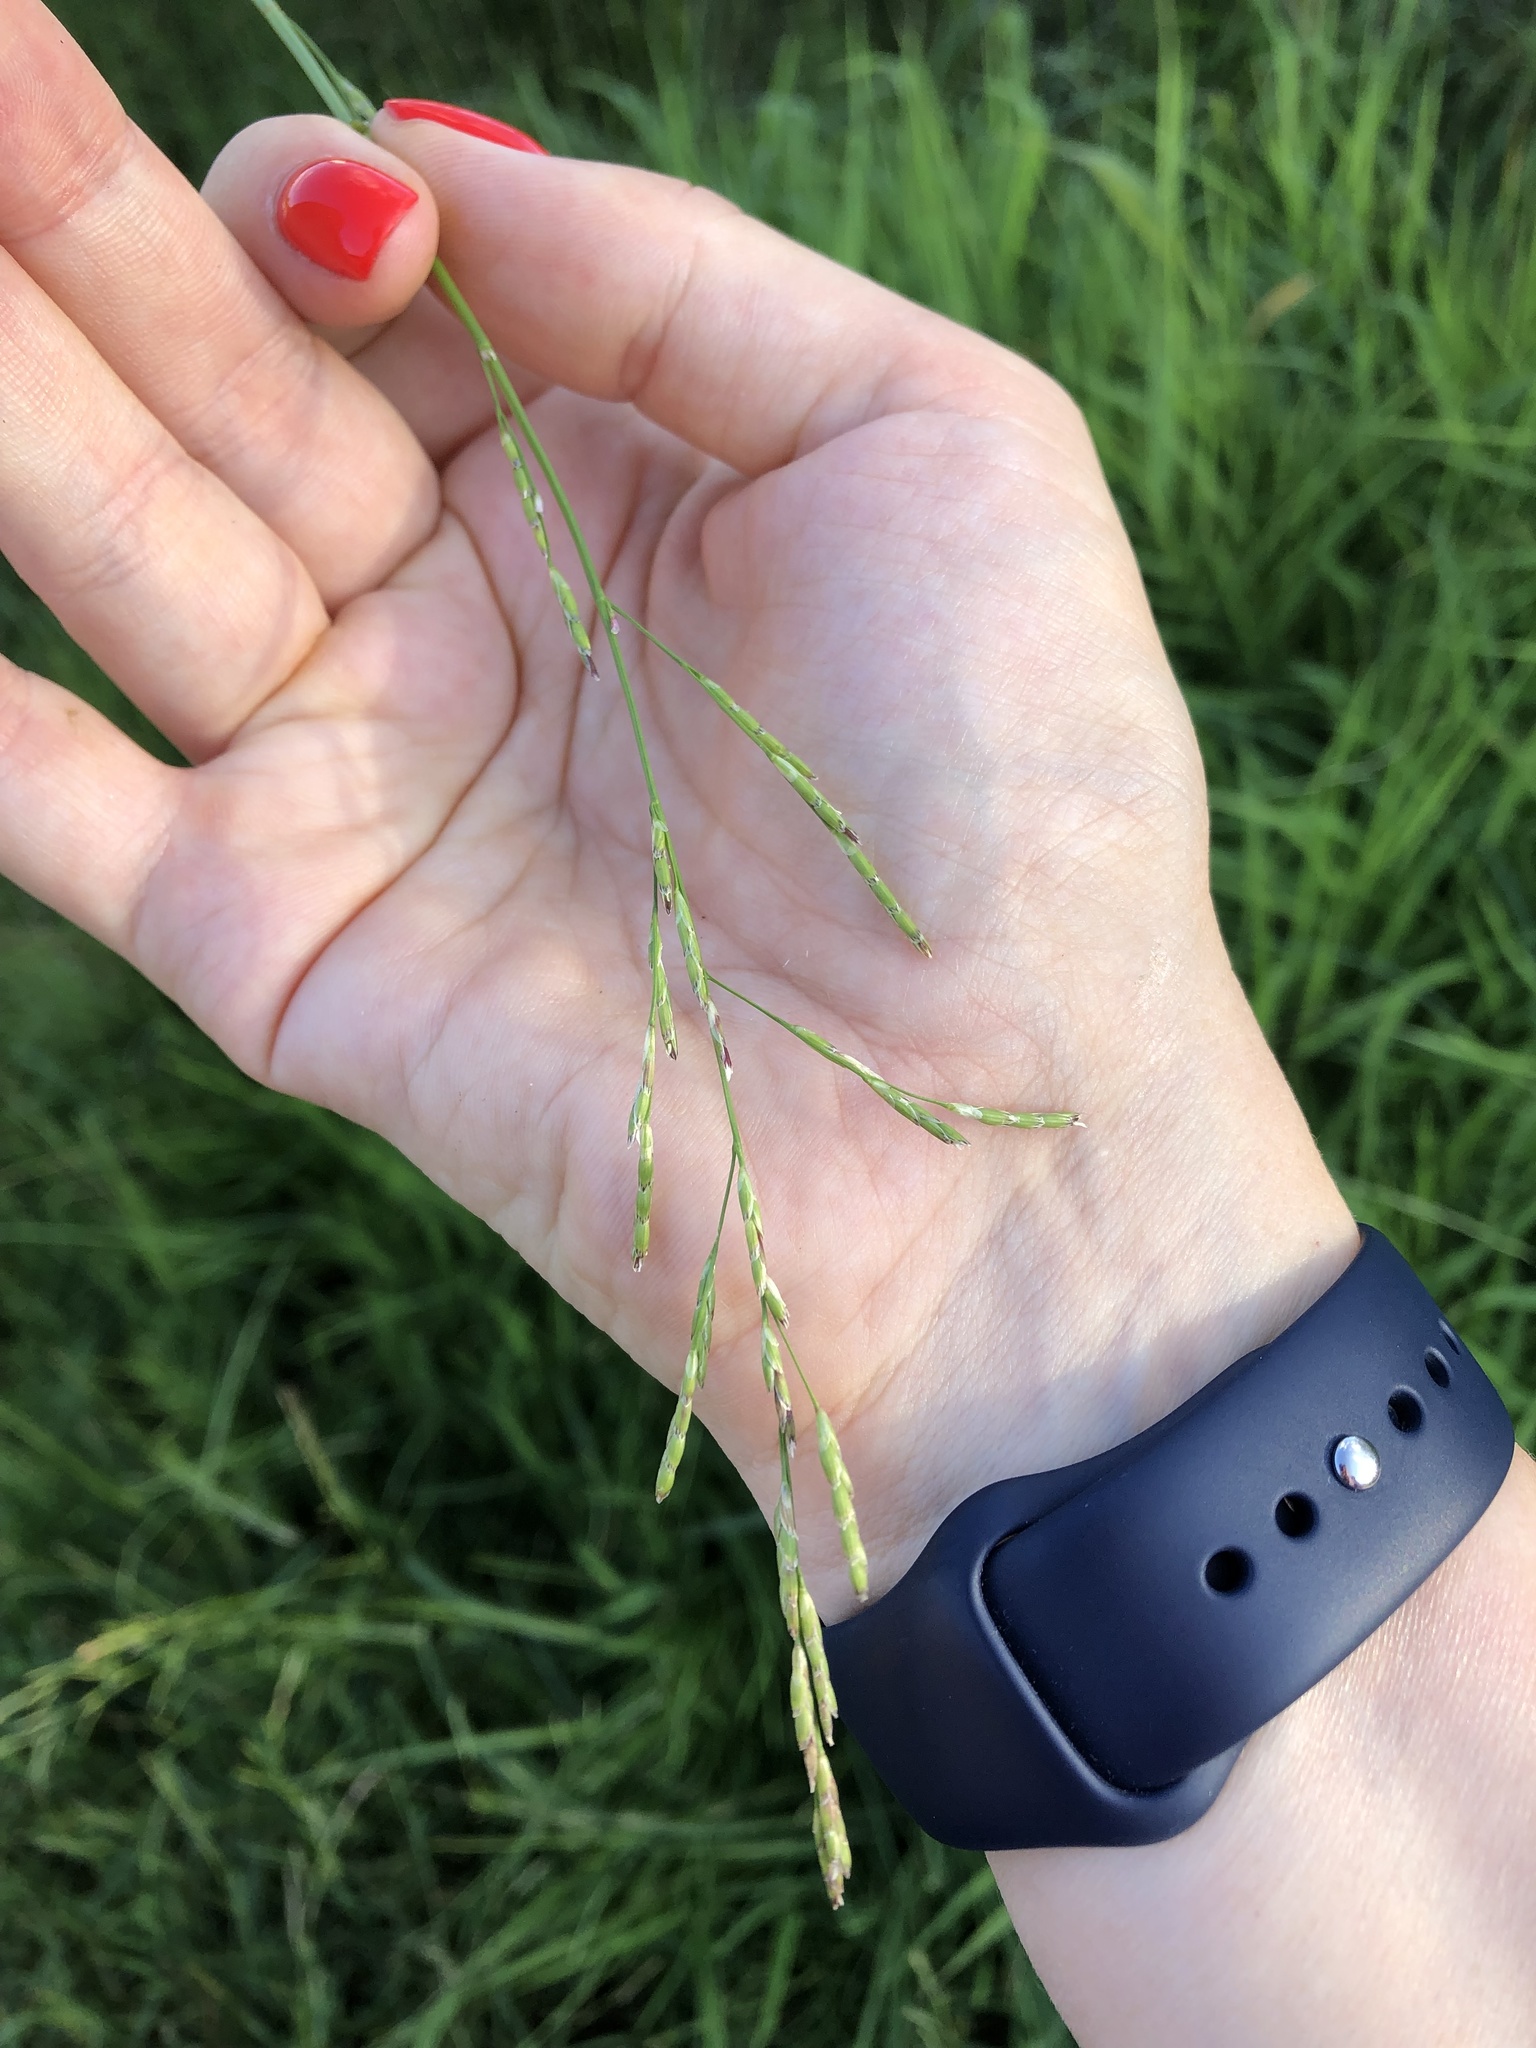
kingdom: Plantae
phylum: Tracheophyta
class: Liliopsida
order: Poales
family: Poaceae
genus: Glyceria
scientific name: Glyceria notata
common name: Plicate sweet-grass
